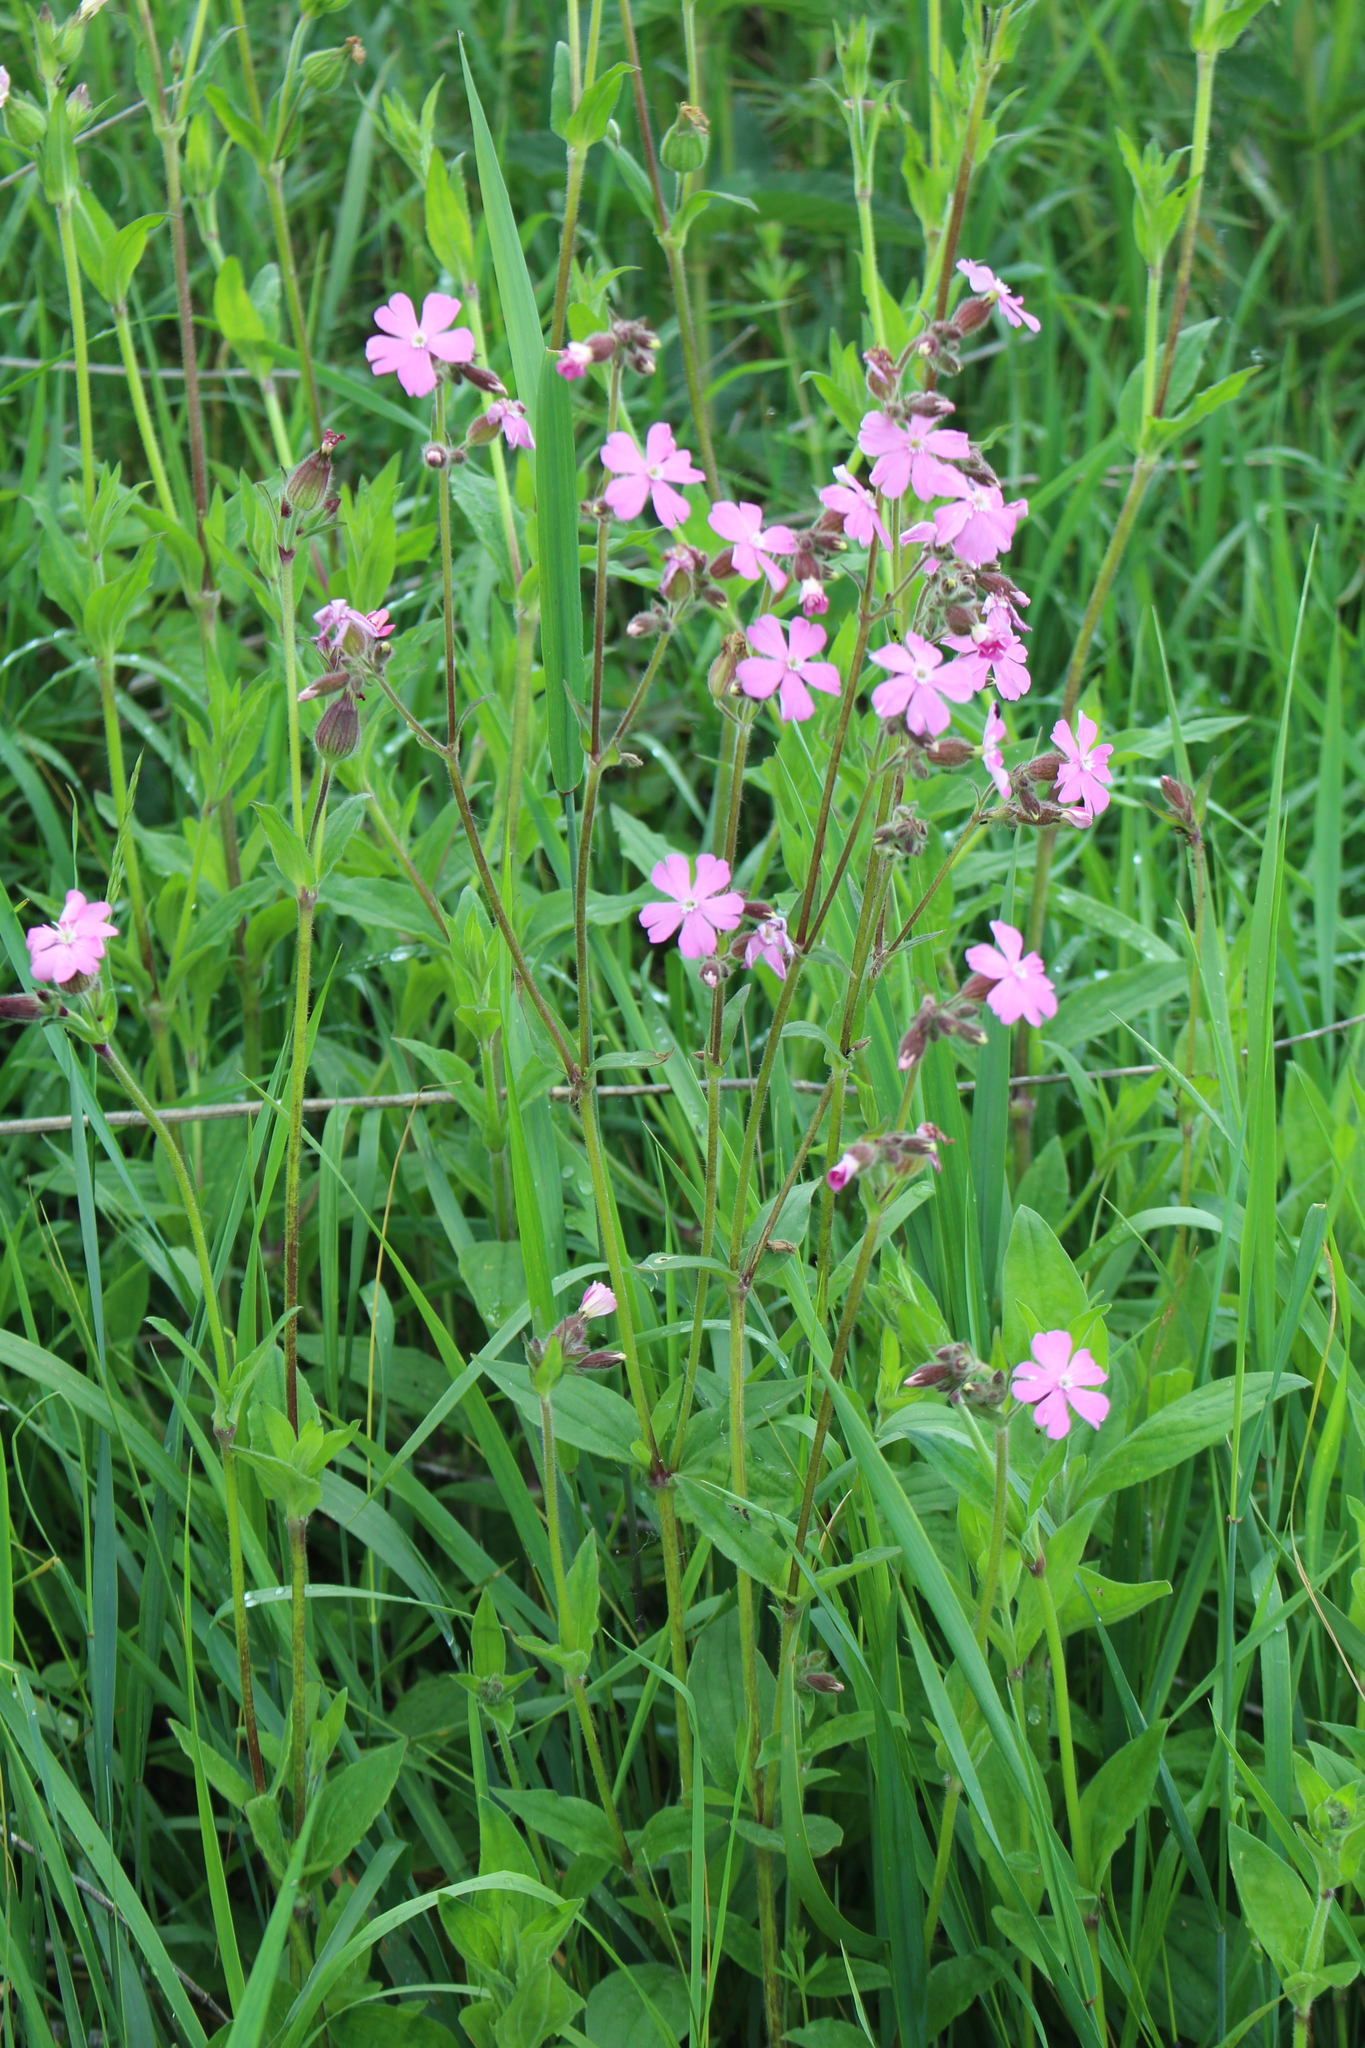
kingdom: Plantae
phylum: Tracheophyta
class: Magnoliopsida
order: Caryophyllales
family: Caryophyllaceae
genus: Silene
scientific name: Silene dioica
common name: Red campion
